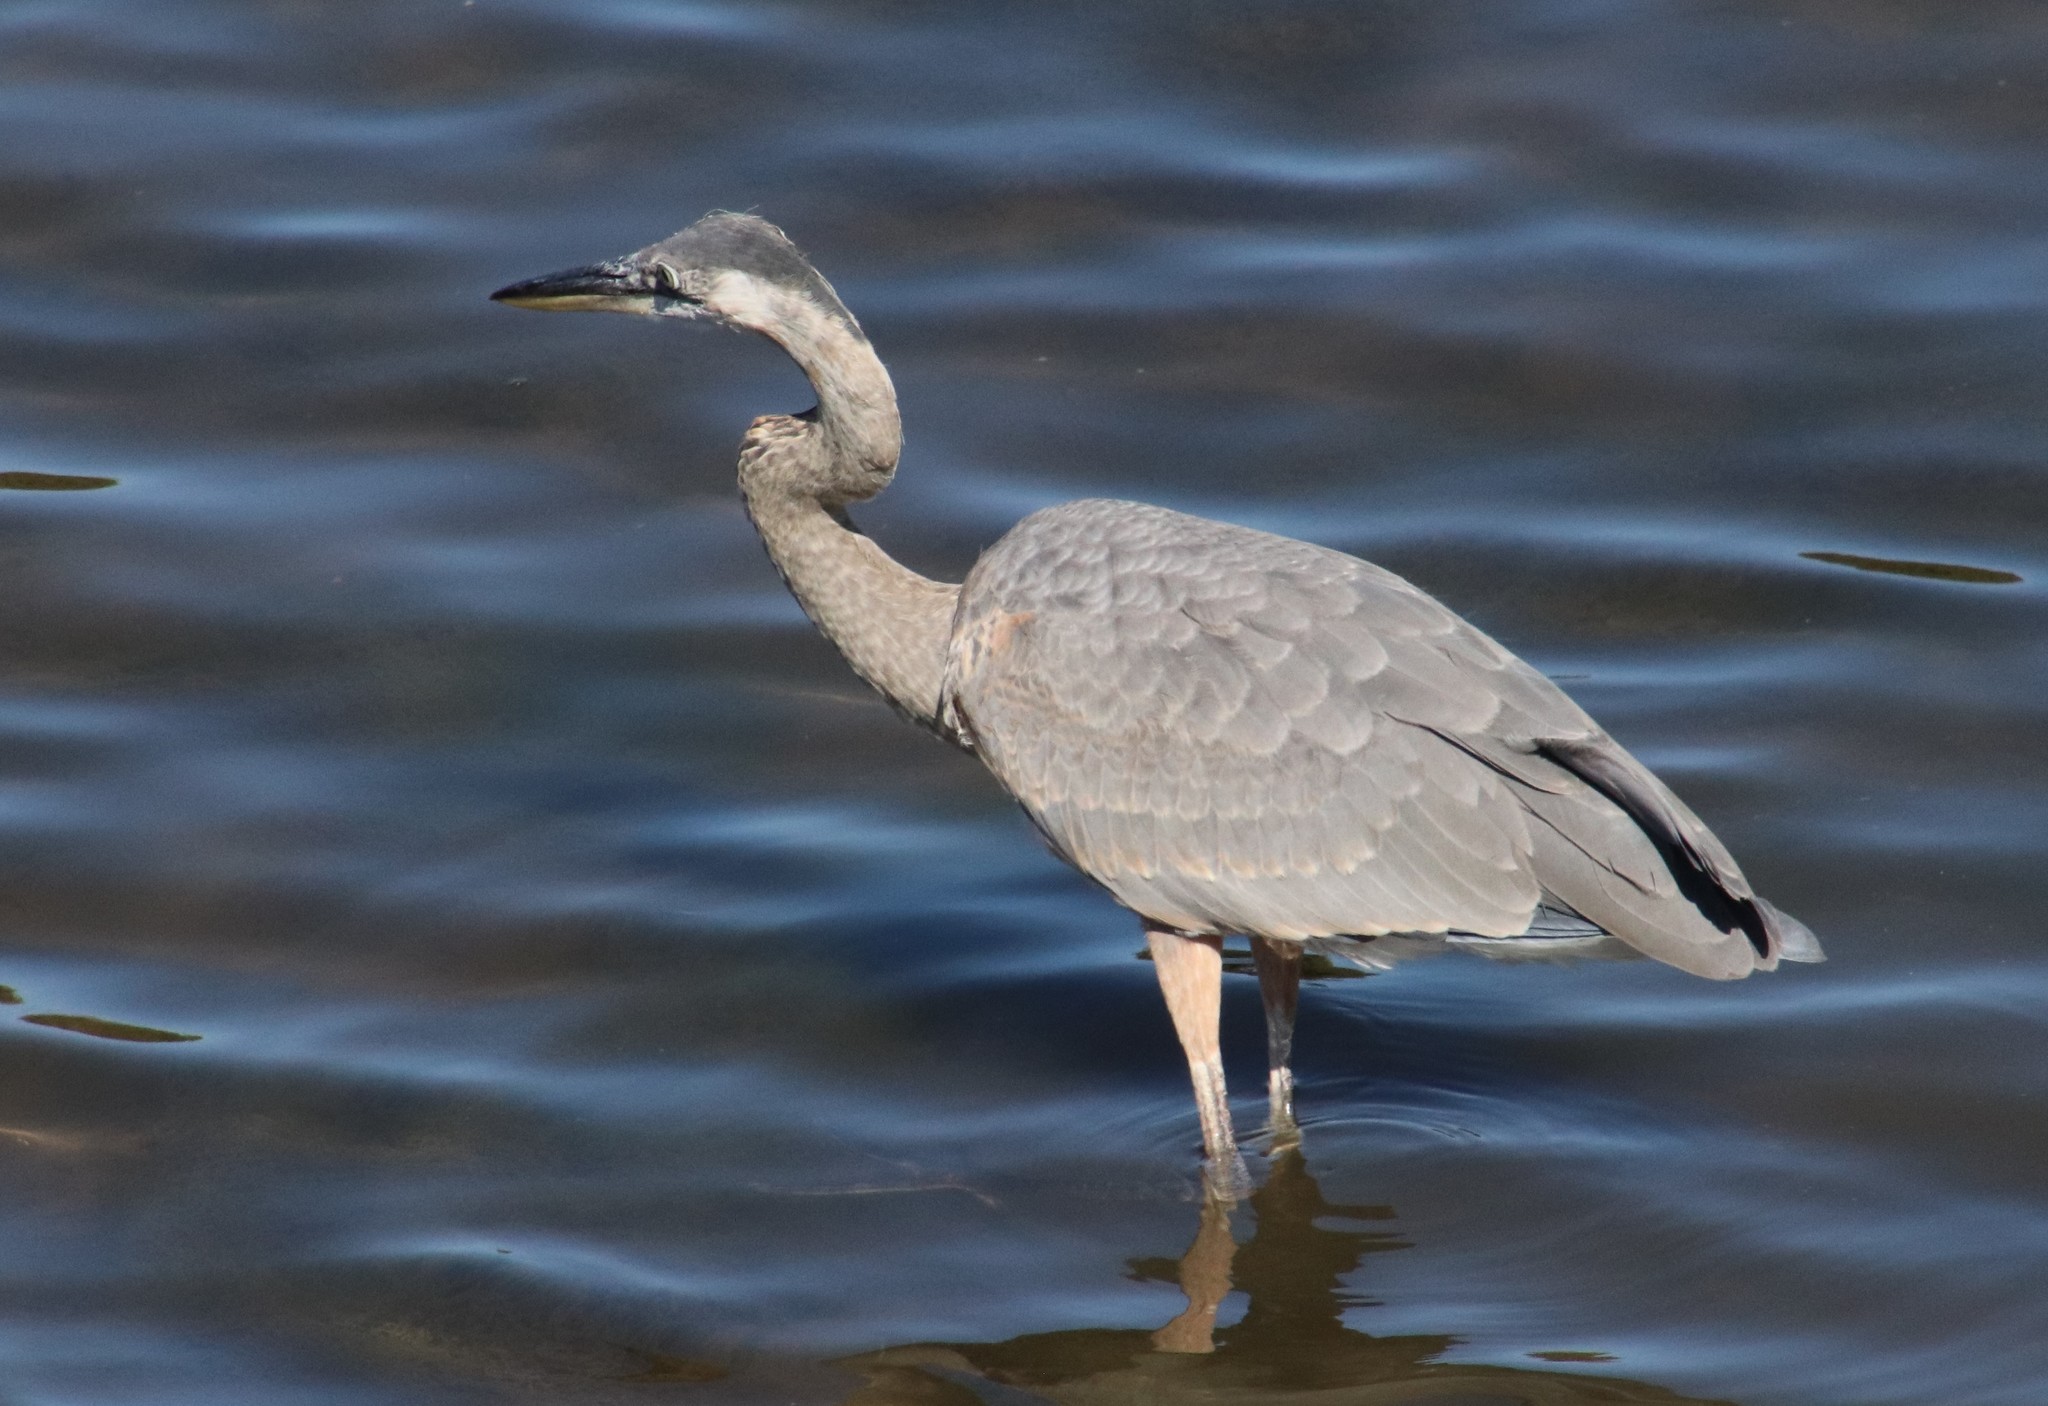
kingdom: Animalia
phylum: Chordata
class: Aves
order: Pelecaniformes
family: Ardeidae
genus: Ardea
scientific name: Ardea herodias
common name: Great blue heron
